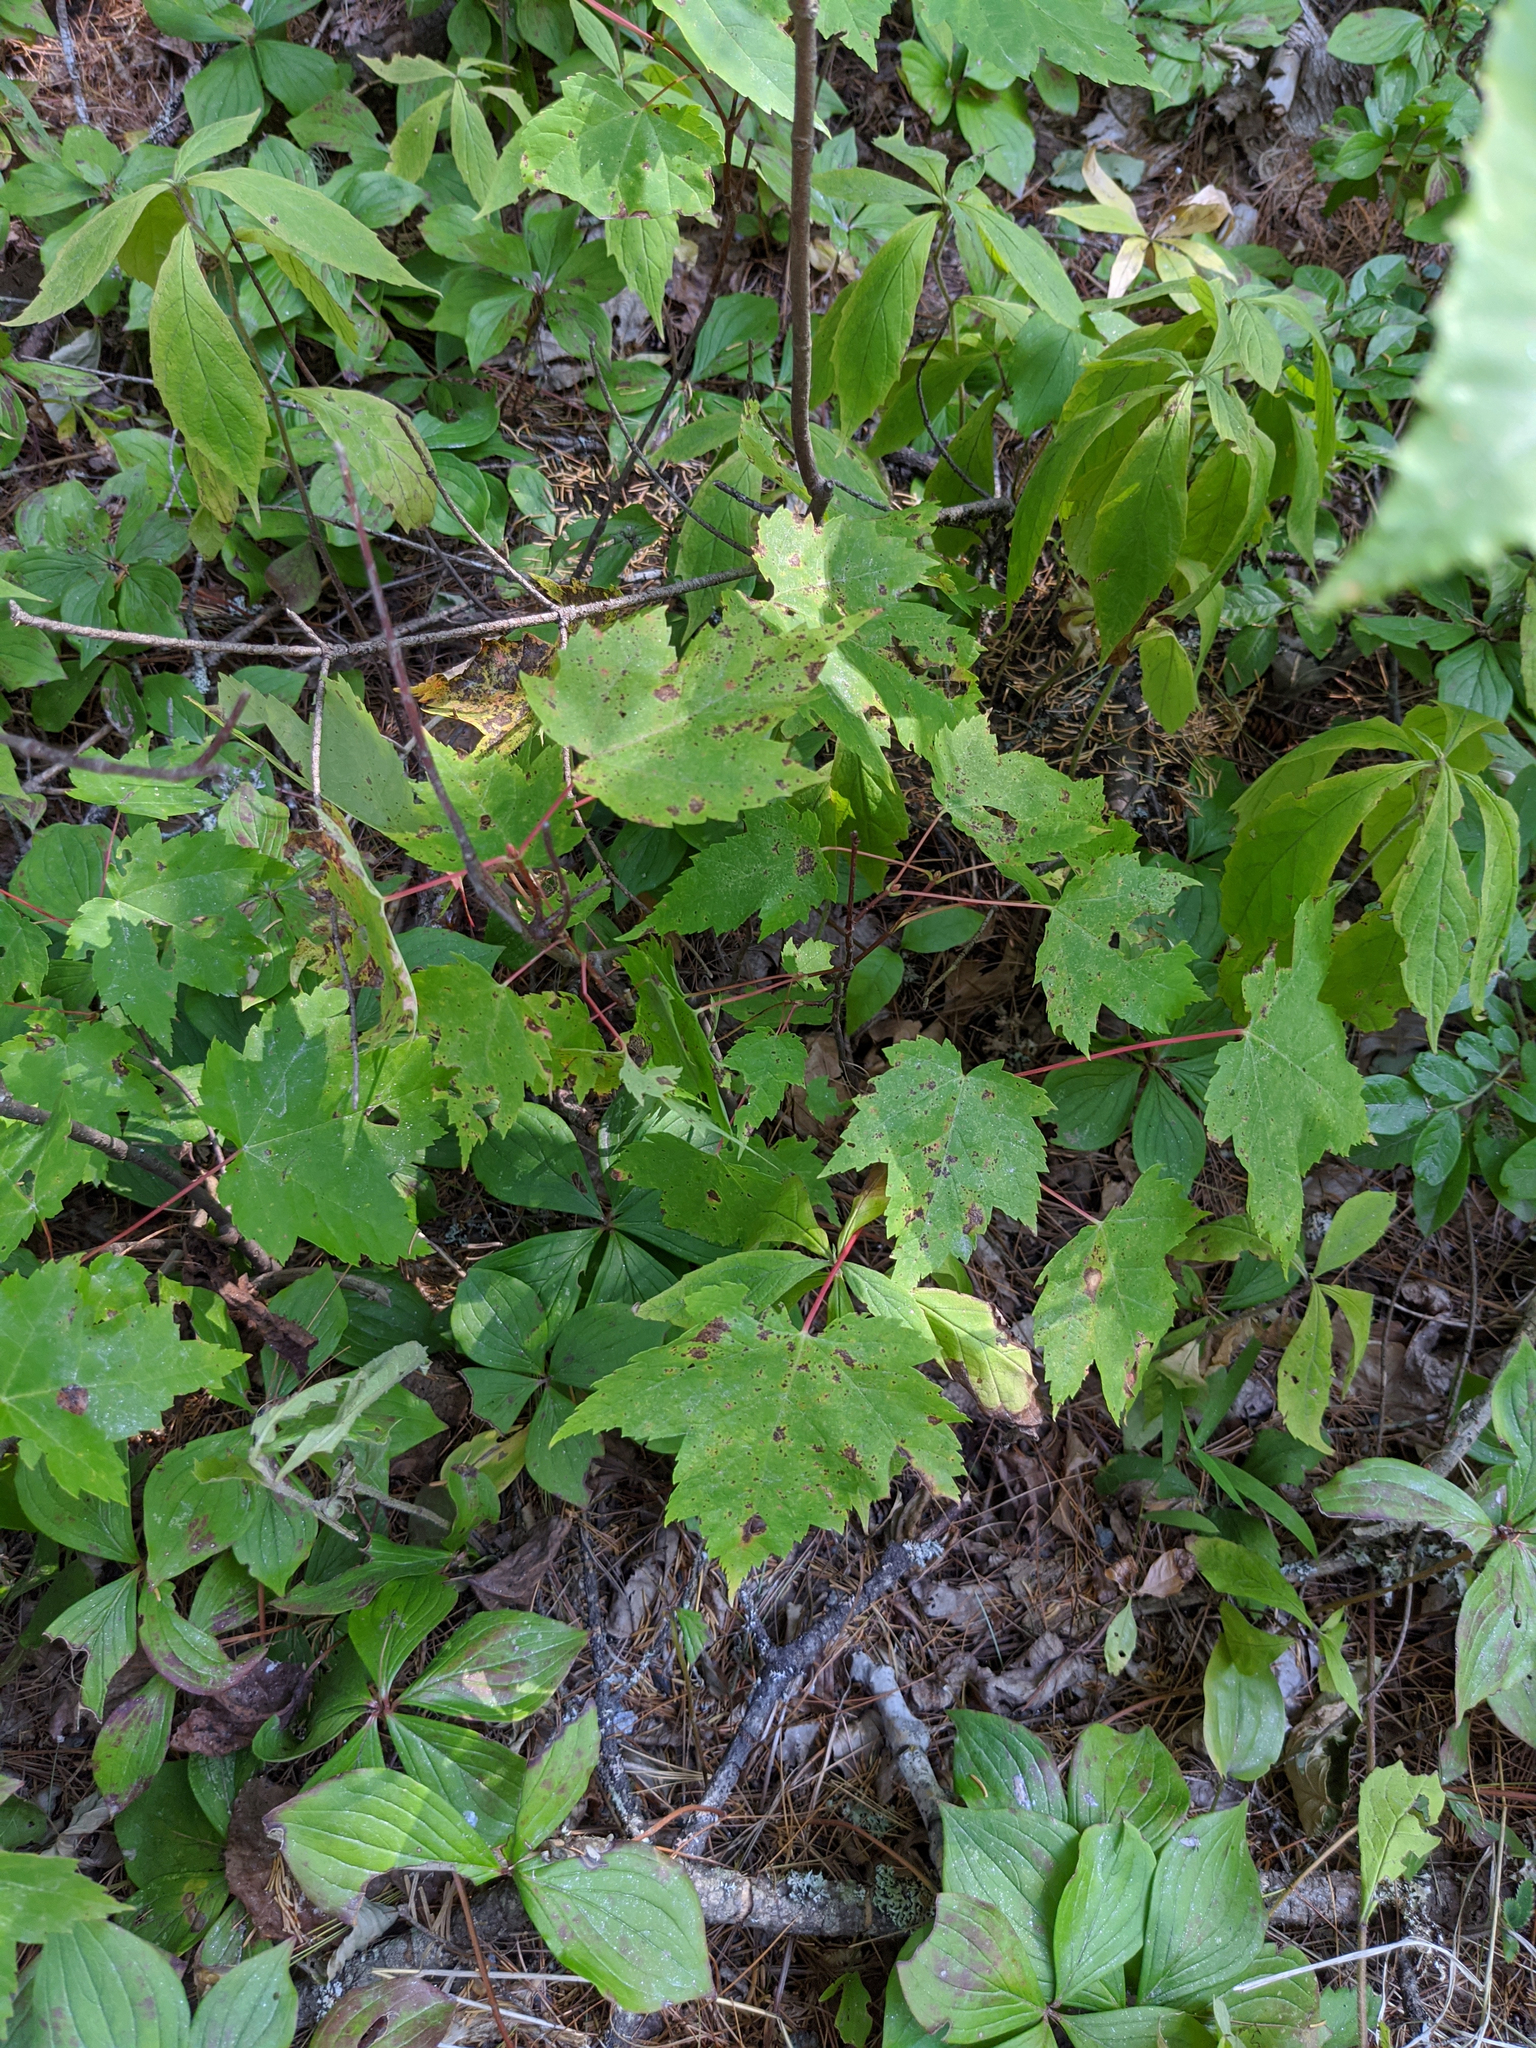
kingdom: Plantae
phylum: Tracheophyta
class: Magnoliopsida
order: Sapindales
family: Sapindaceae
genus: Acer
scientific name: Acer rubrum
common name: Red maple
